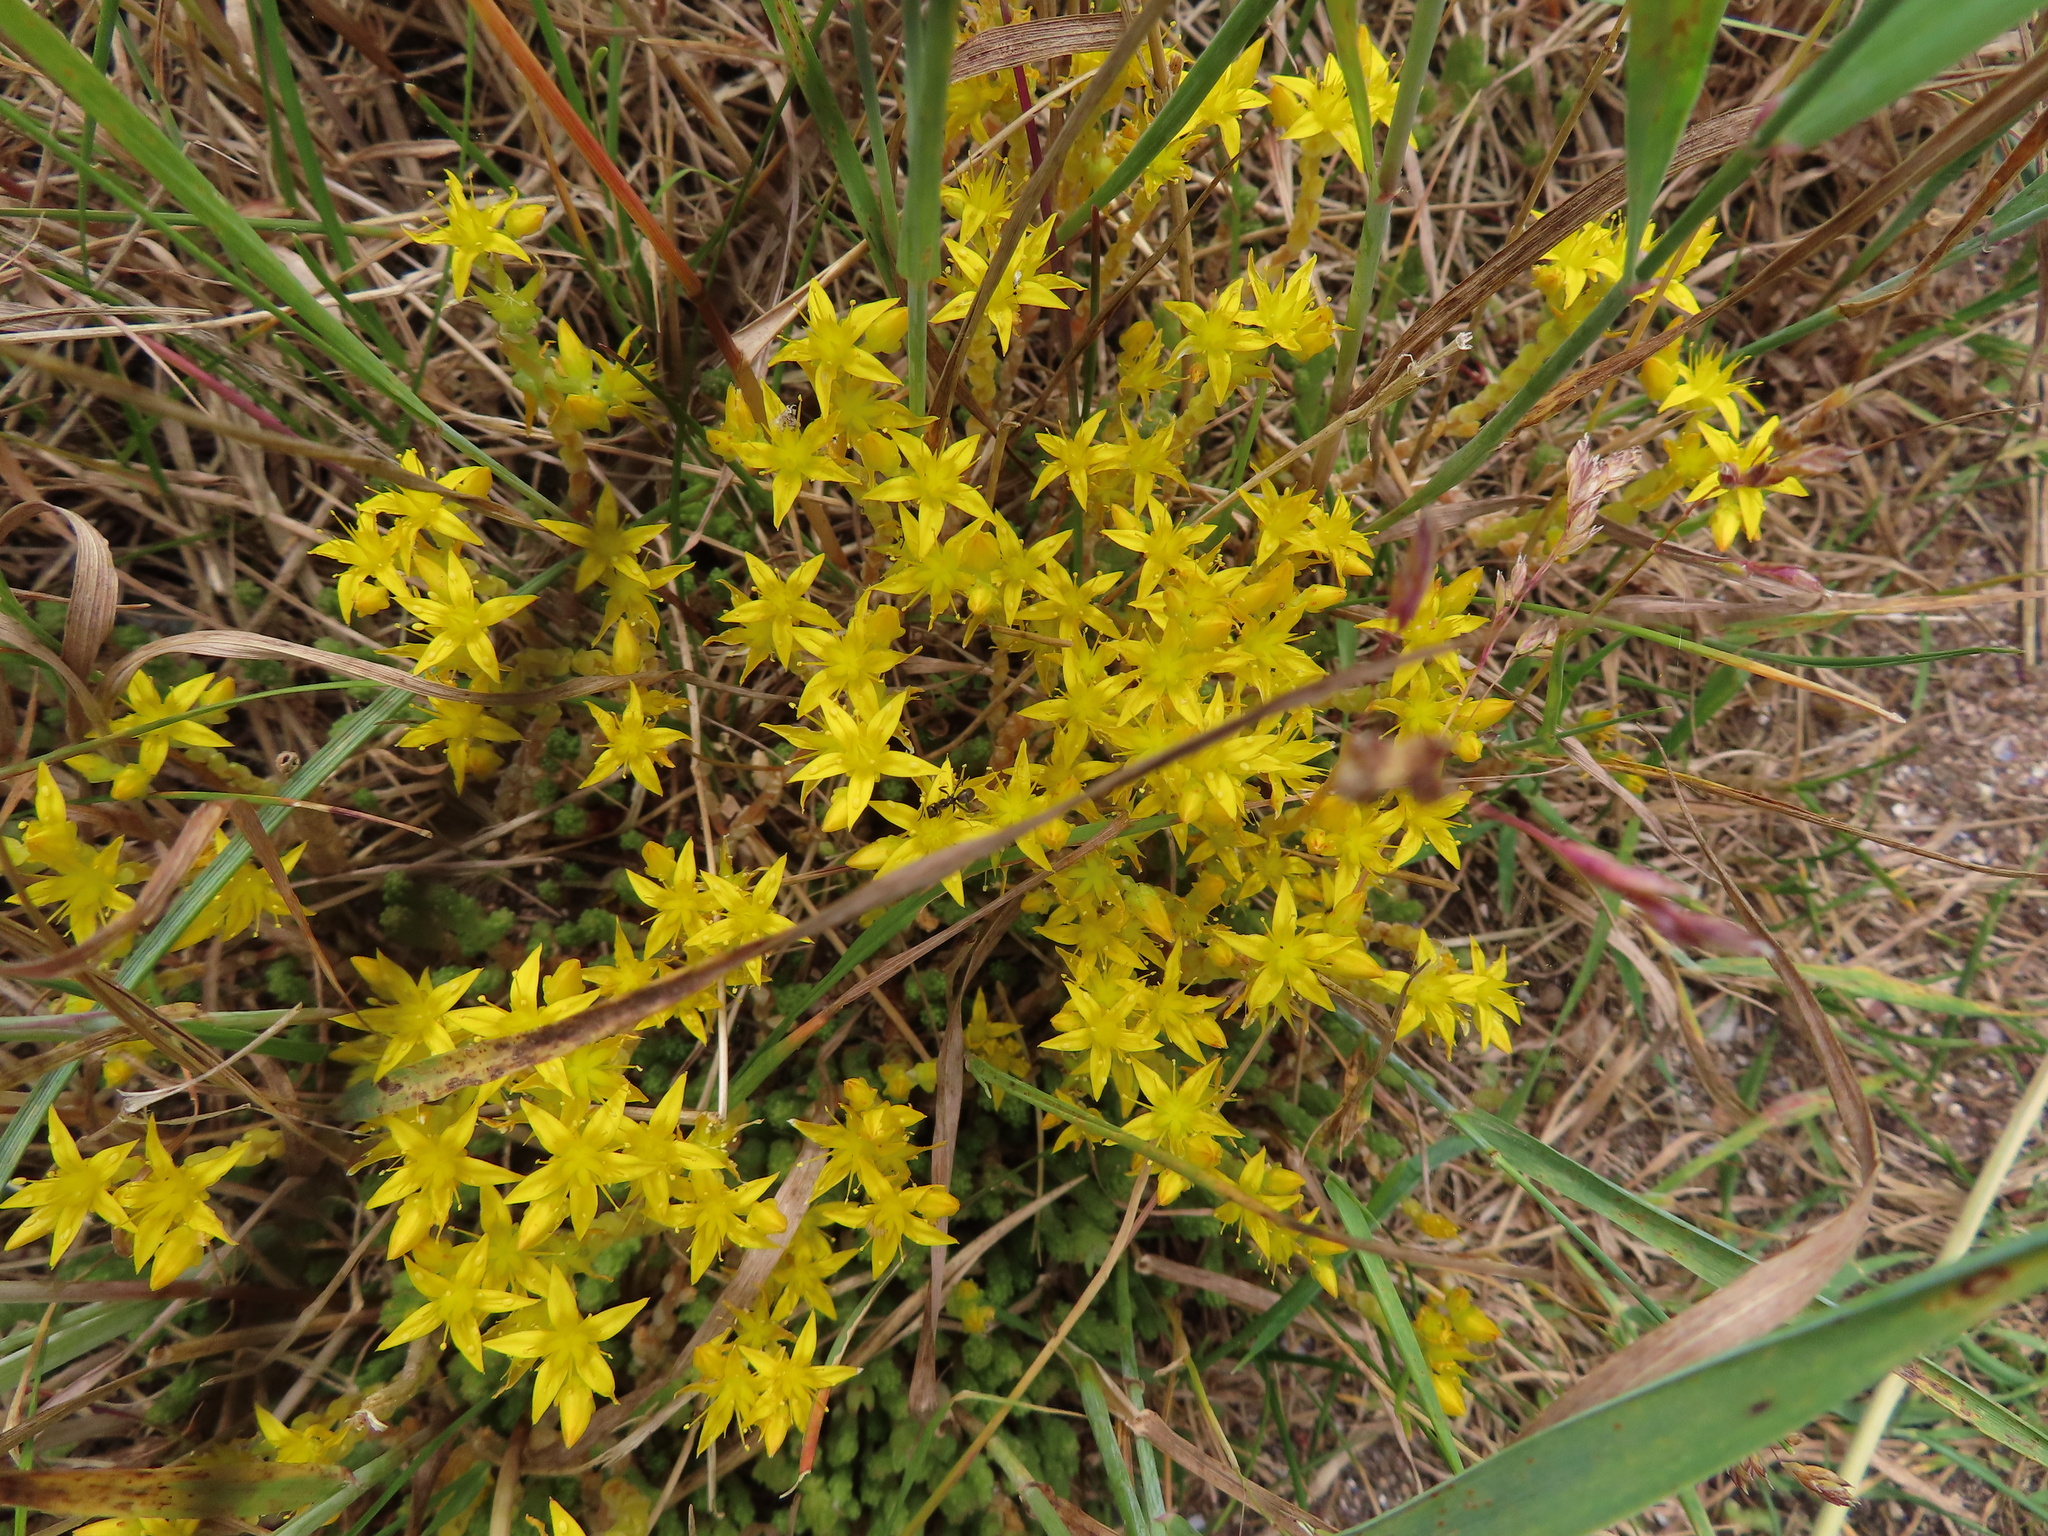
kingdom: Plantae
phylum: Tracheophyta
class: Magnoliopsida
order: Saxifragales
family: Crassulaceae
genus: Sedum
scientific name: Sedum acre
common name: Biting stonecrop
